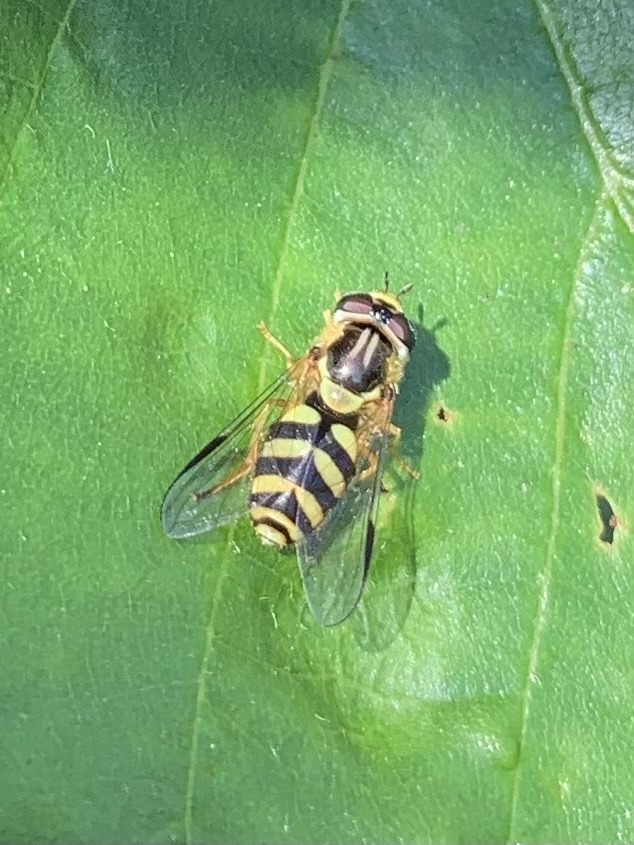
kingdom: Animalia
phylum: Arthropoda
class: Insecta
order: Diptera
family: Syrphidae
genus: Dasysyrphus
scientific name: Dasysyrphus albostriatus
